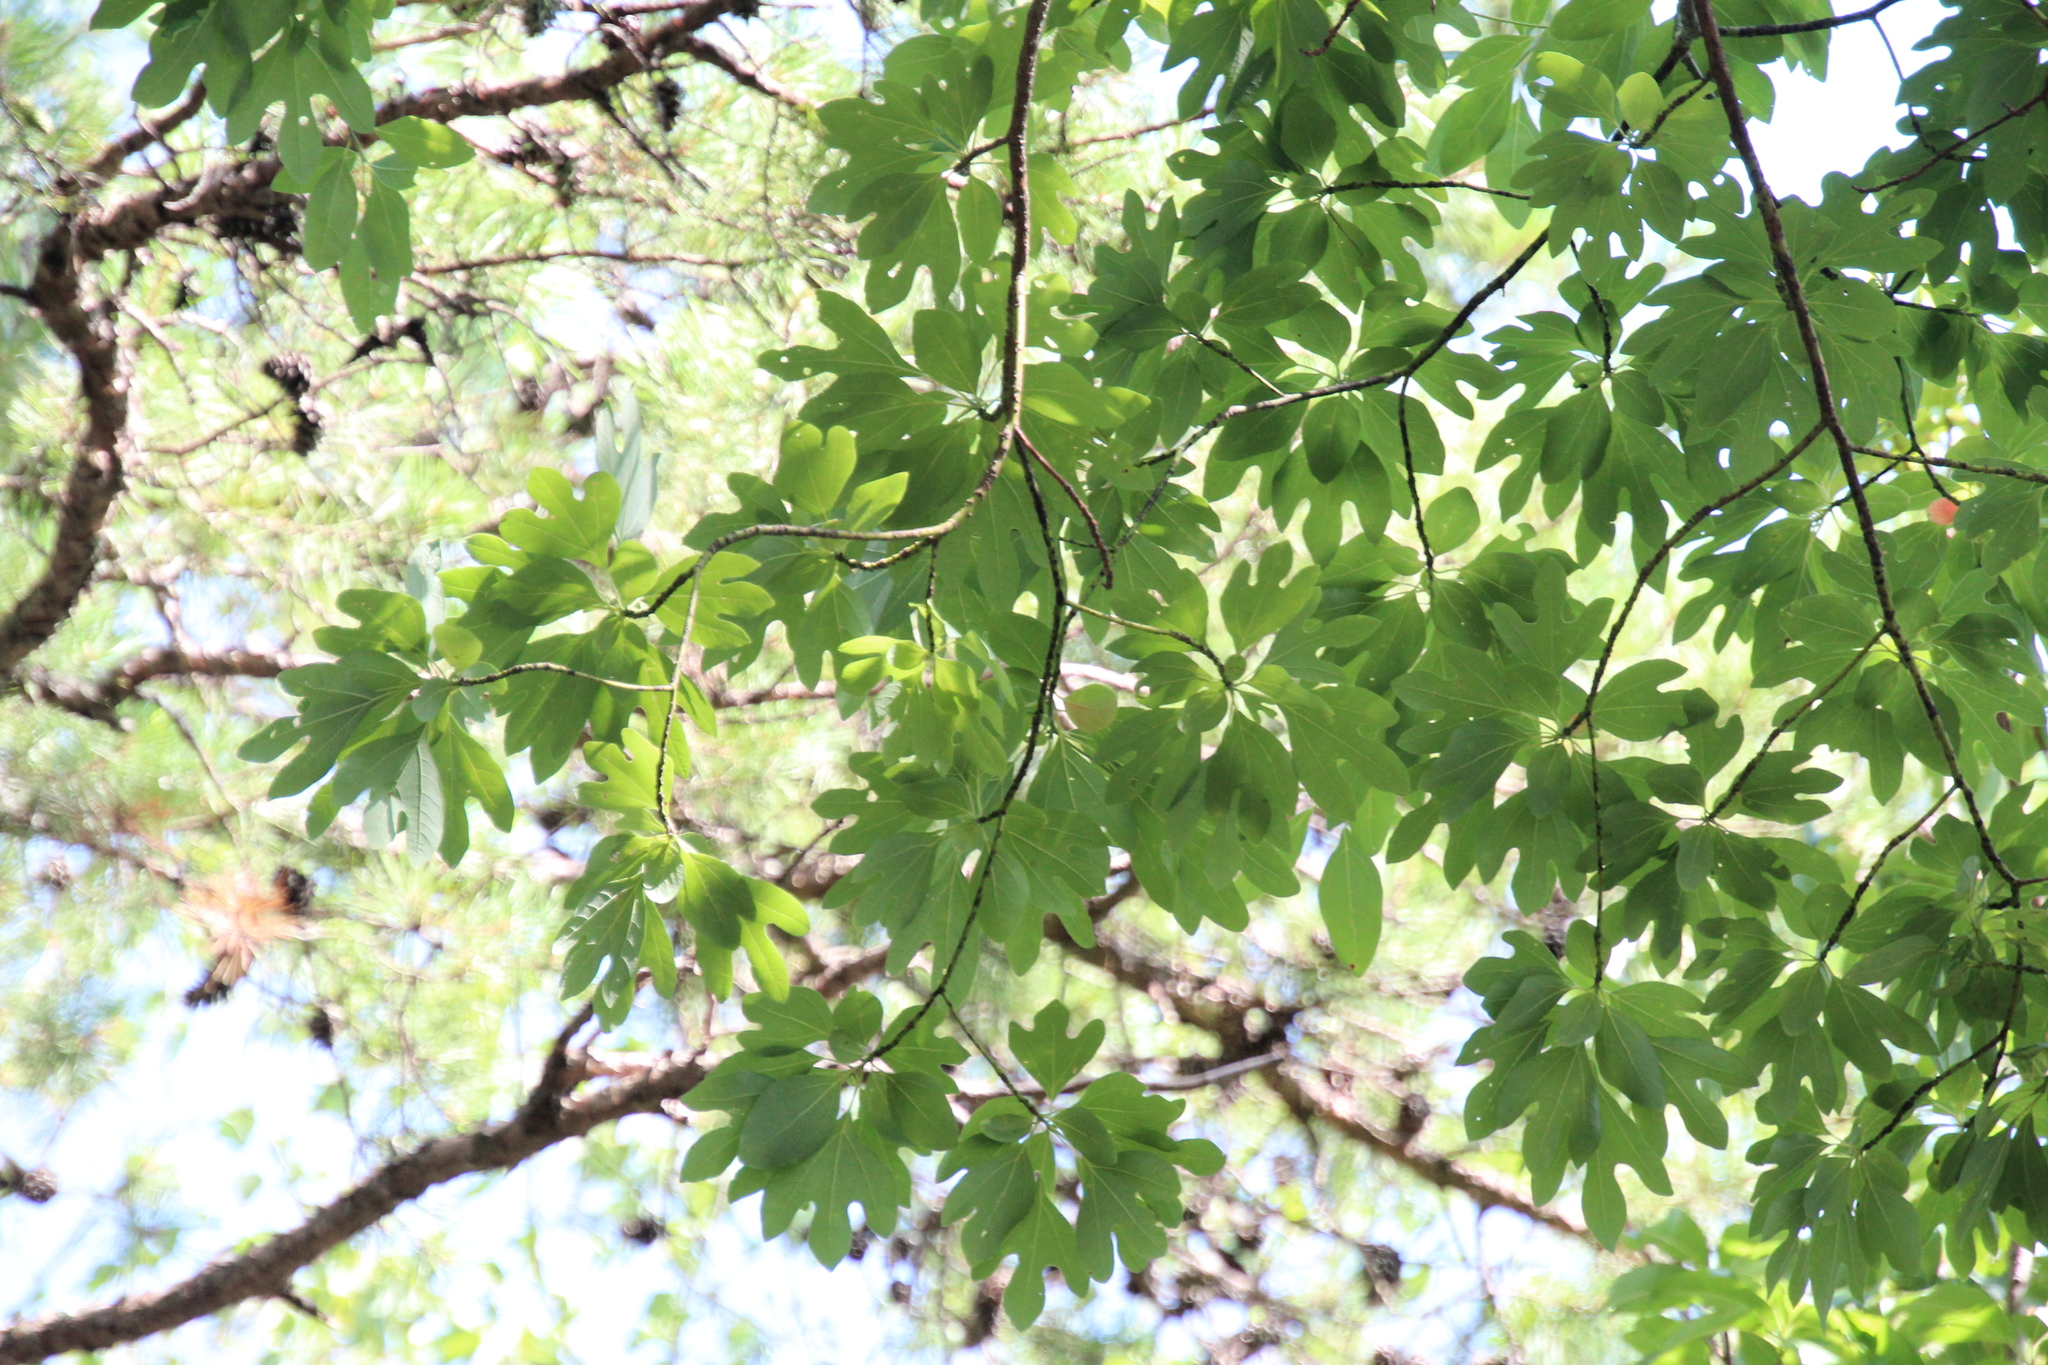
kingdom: Plantae
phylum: Tracheophyta
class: Magnoliopsida
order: Laurales
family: Lauraceae
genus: Sassafras
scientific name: Sassafras albidum
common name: Sassafras
